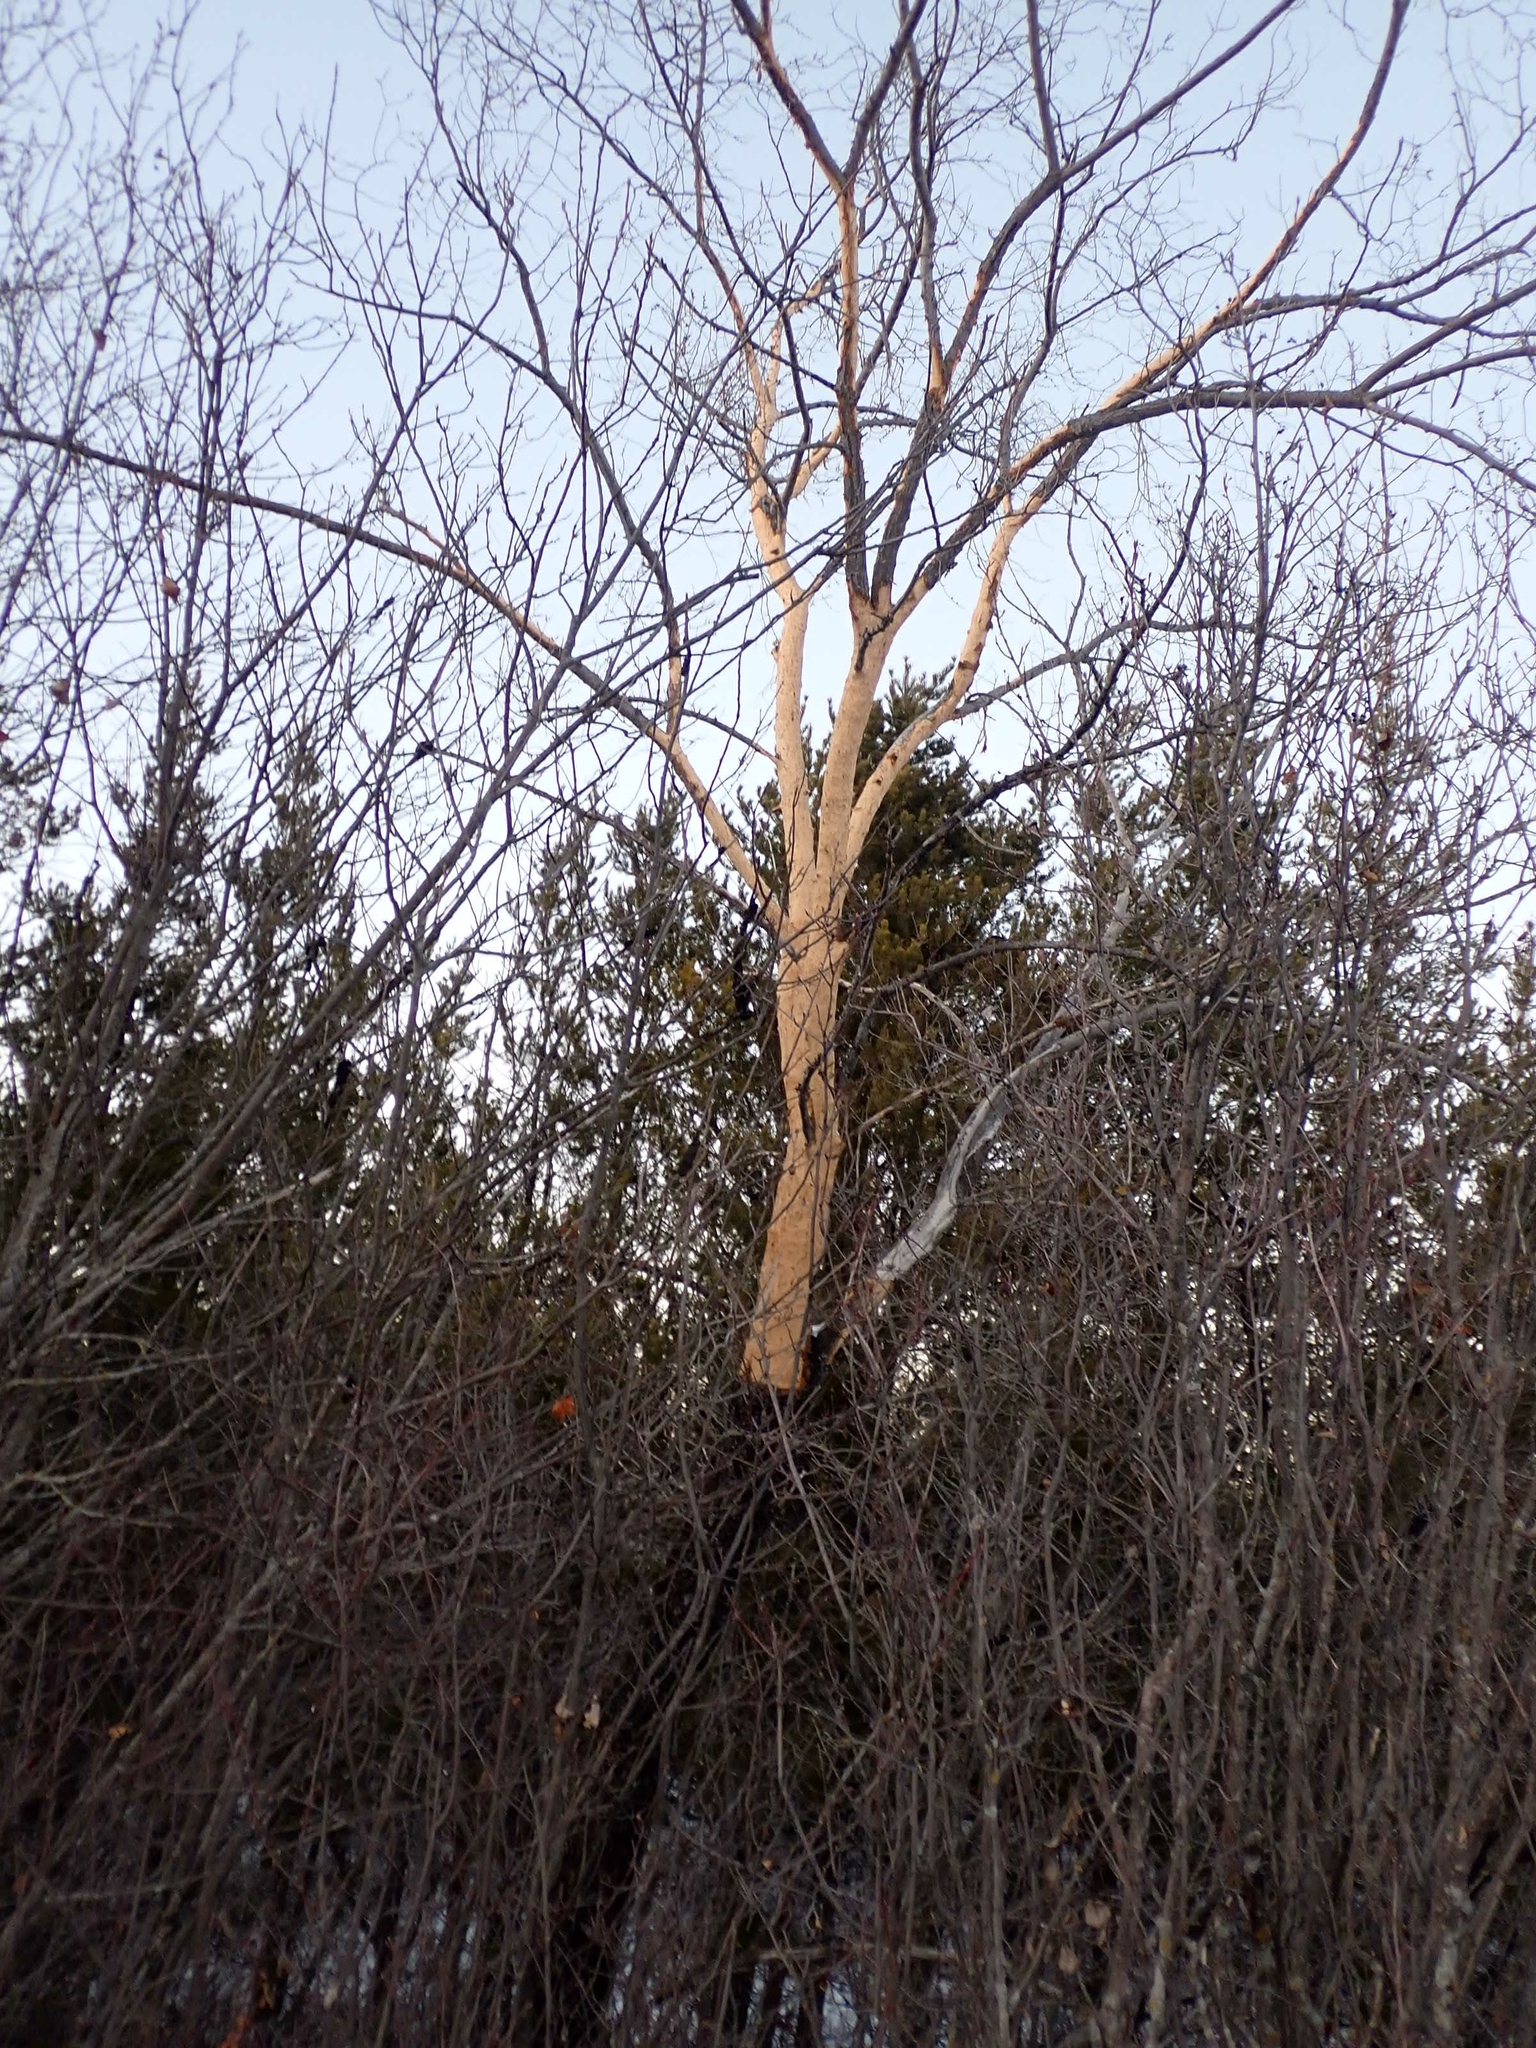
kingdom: Animalia
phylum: Chordata
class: Mammalia
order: Rodentia
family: Erethizontidae
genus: Erethizon
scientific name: Erethizon dorsatus
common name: North american porcupine
